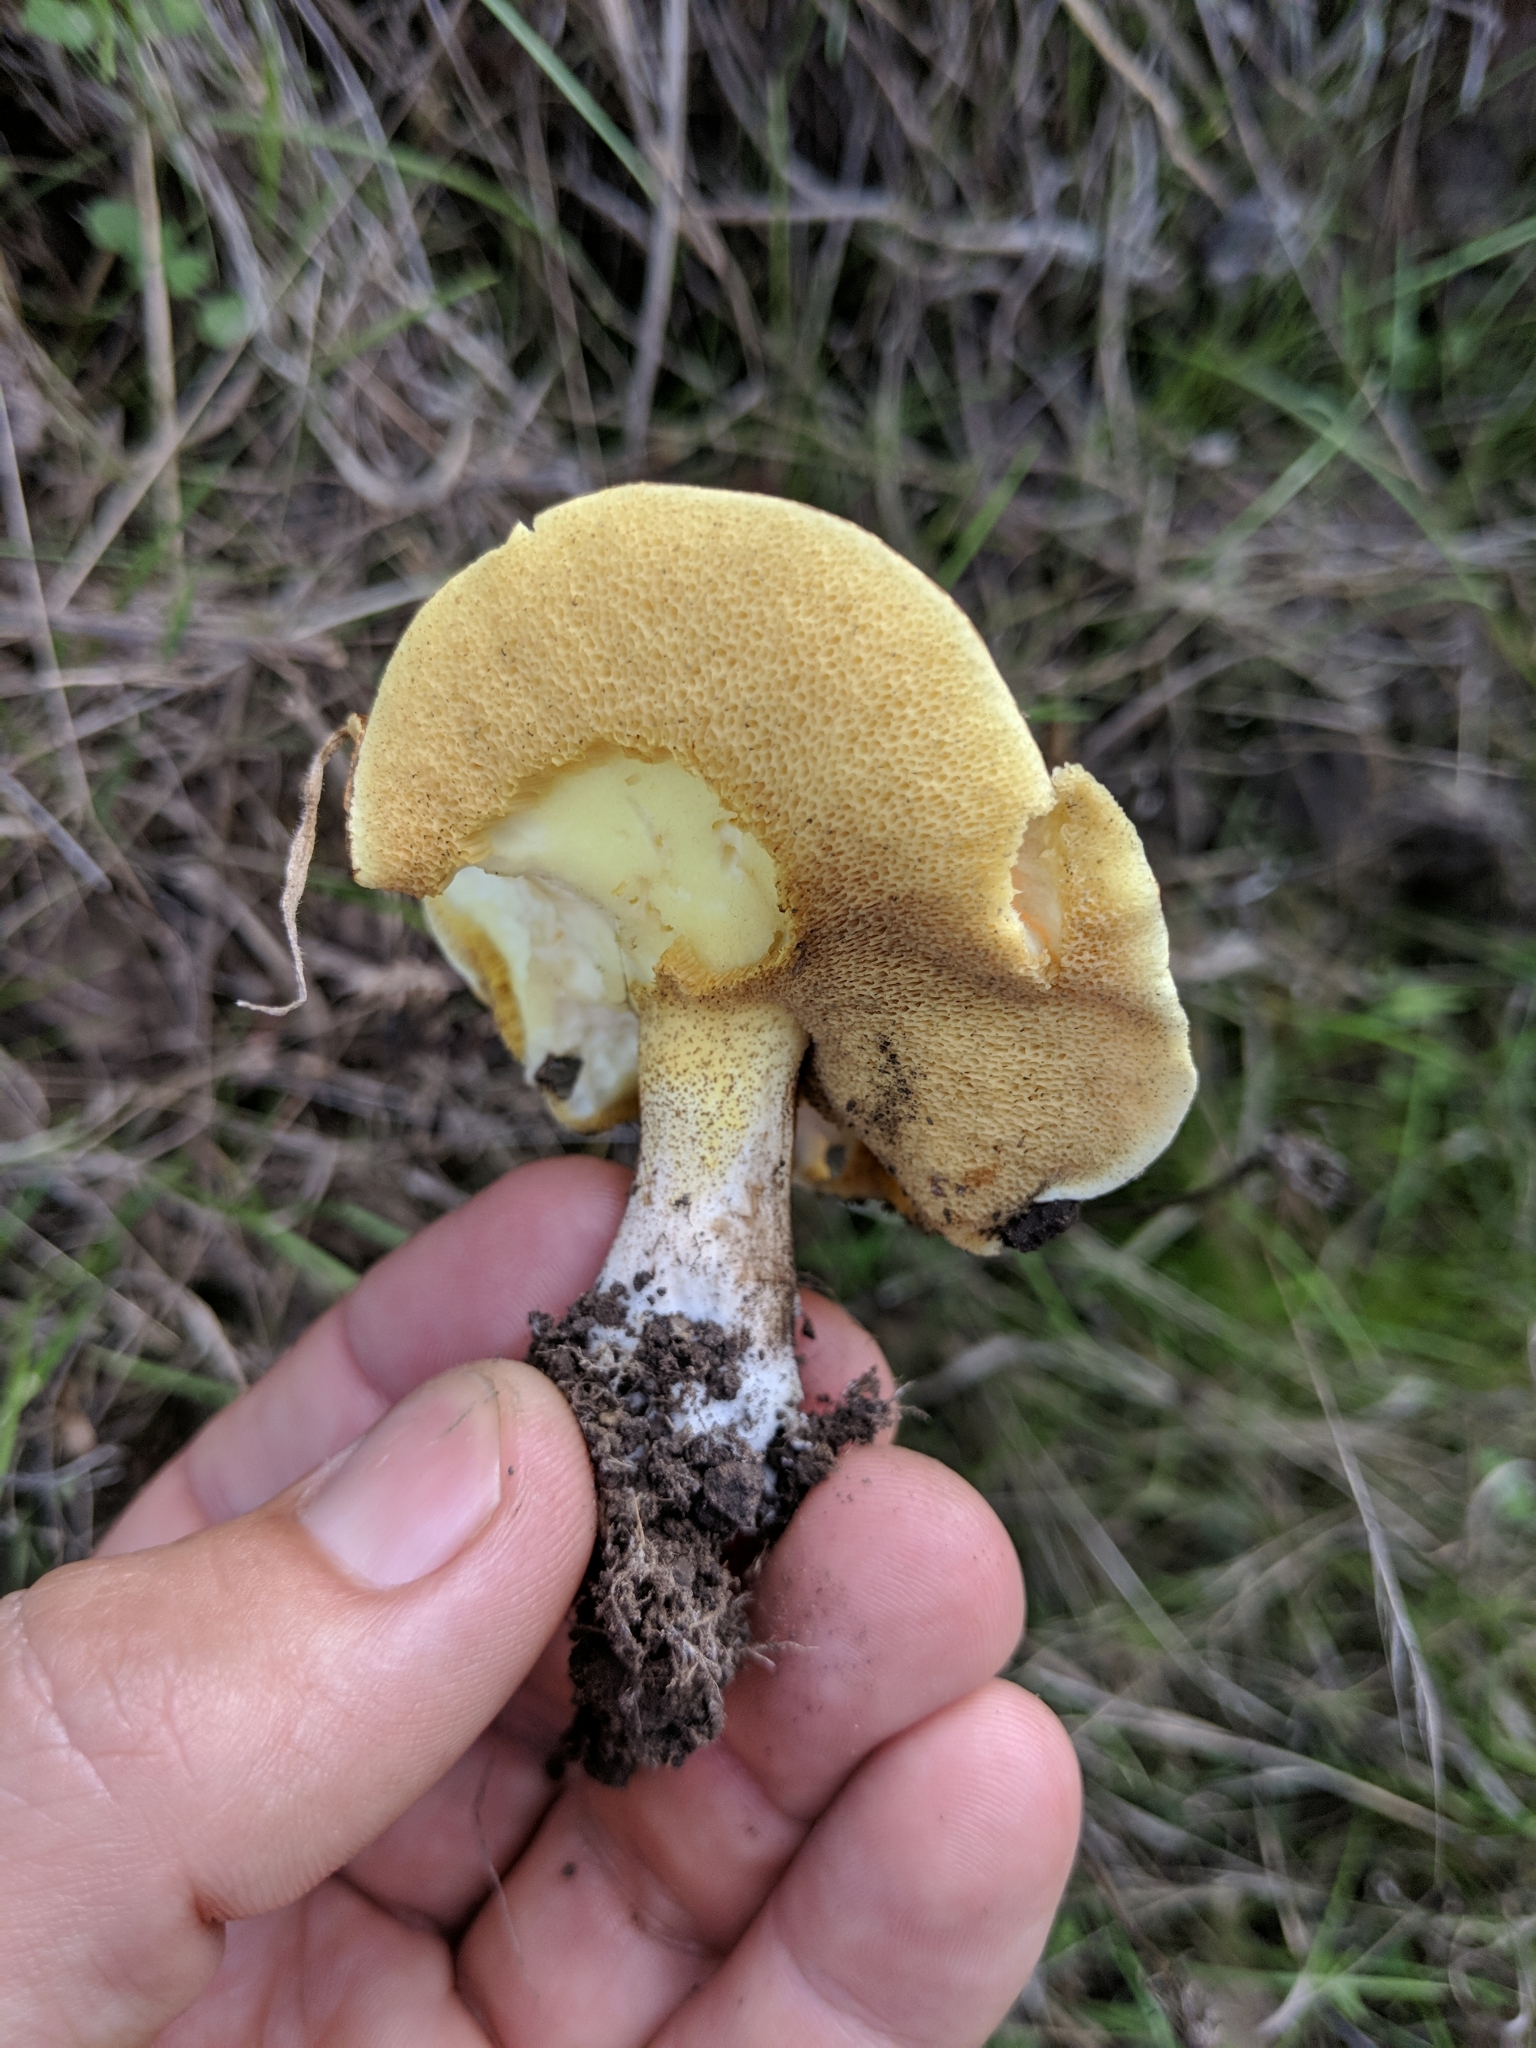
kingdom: Fungi
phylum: Basidiomycota
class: Agaricomycetes
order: Boletales
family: Suillaceae
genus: Suillus
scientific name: Suillus pungens
